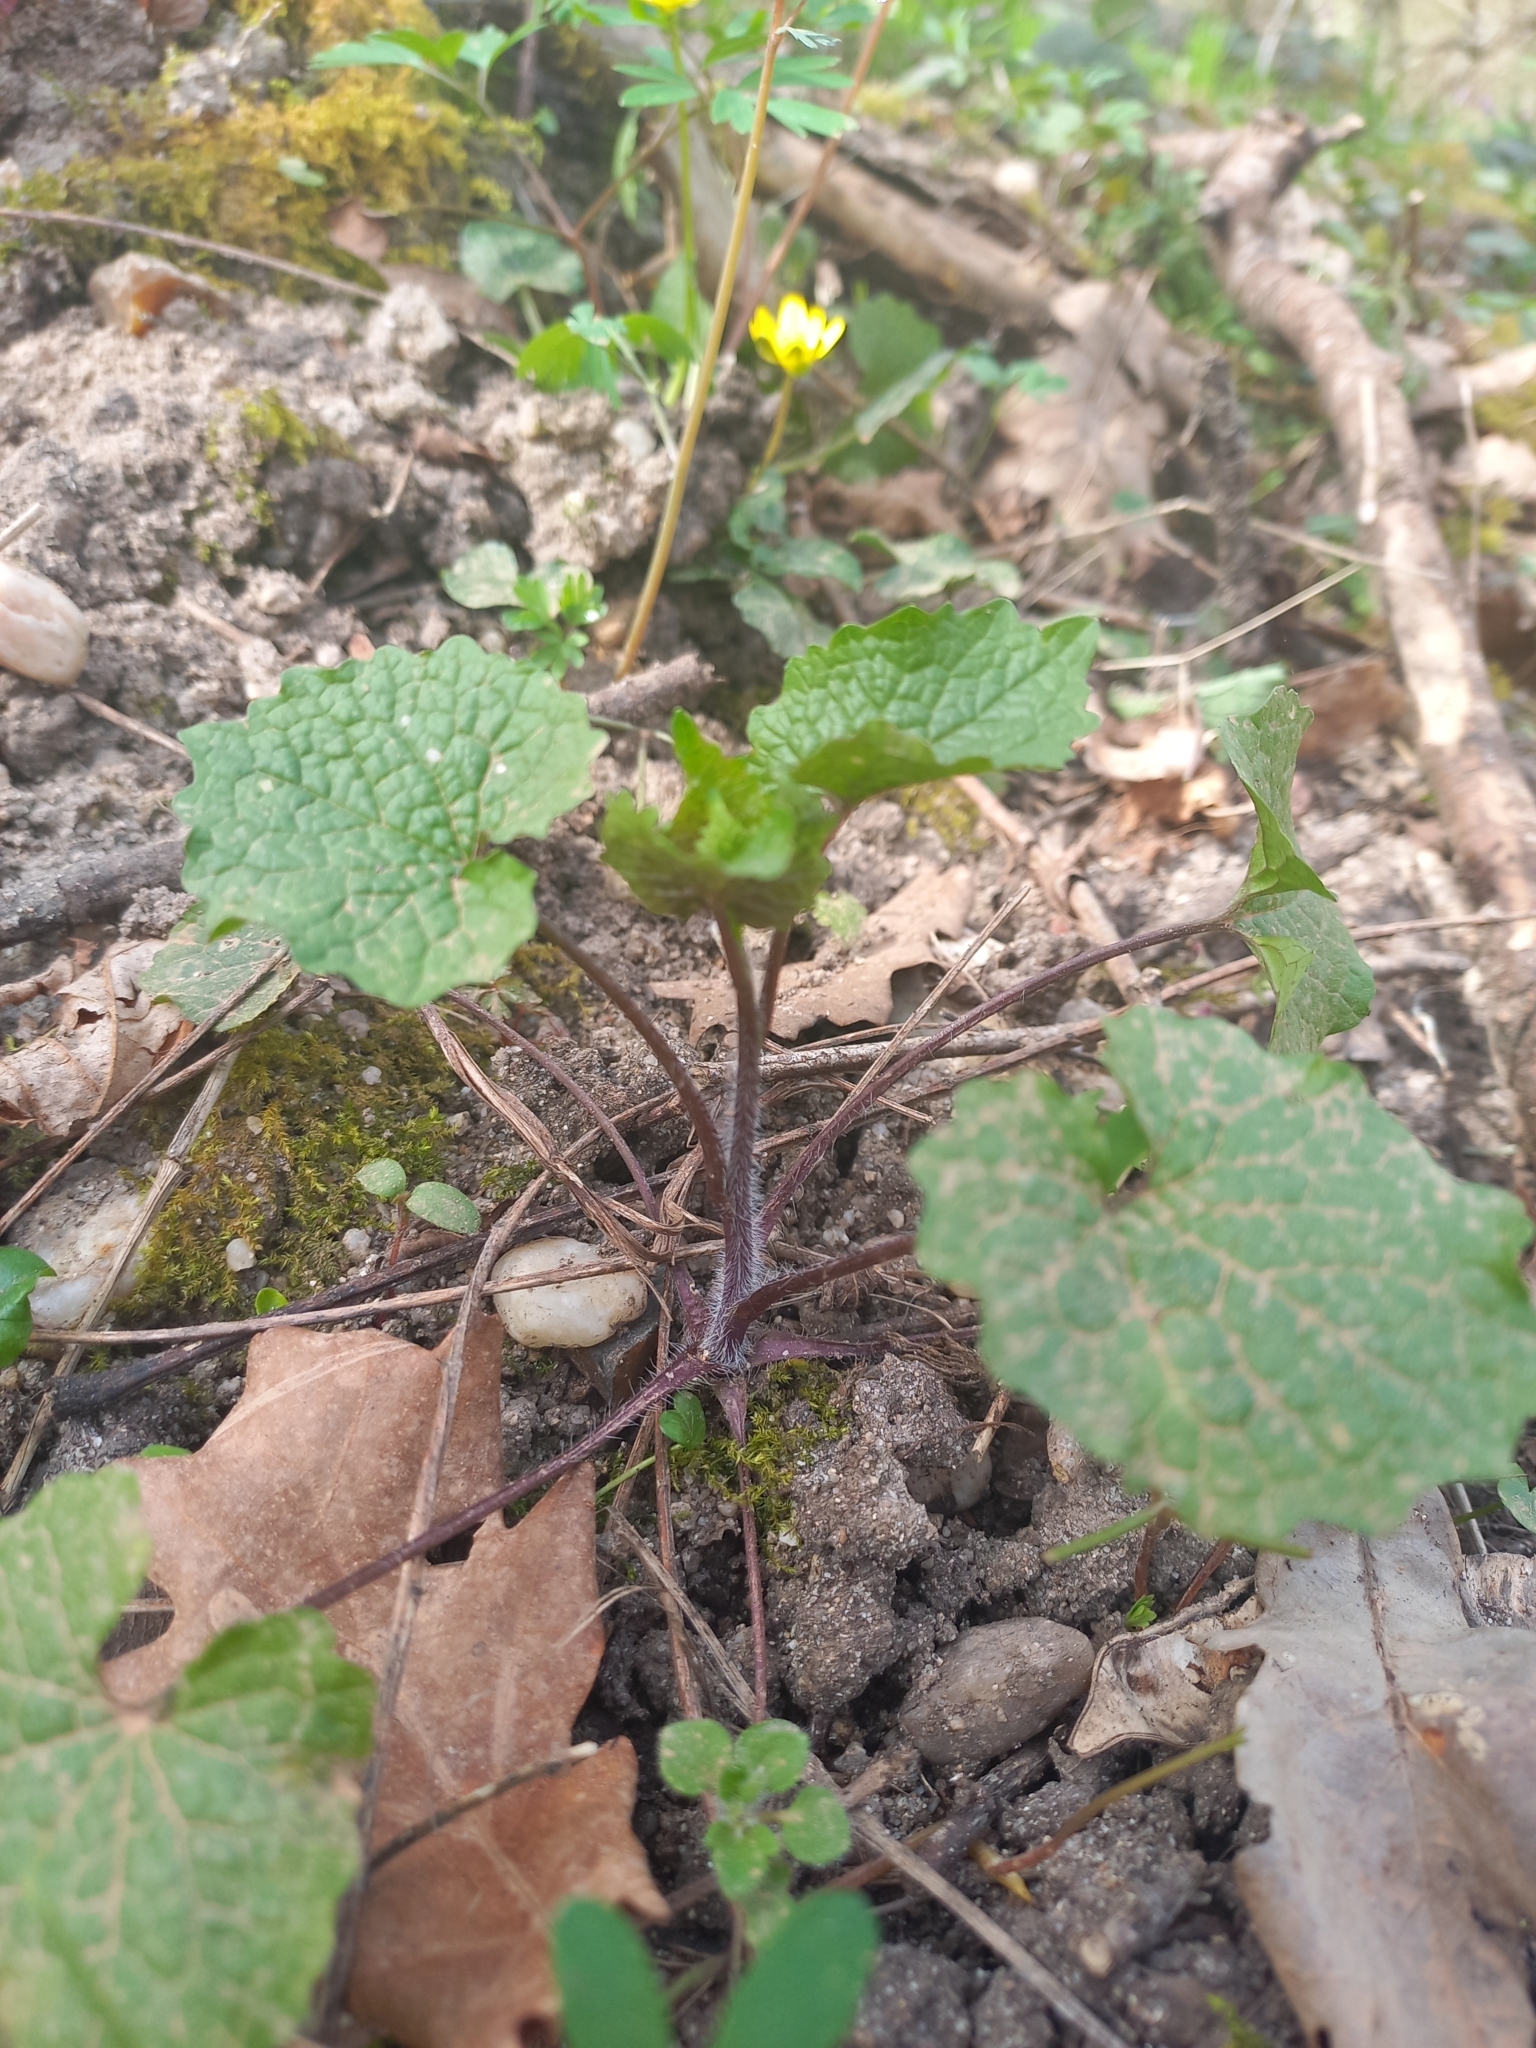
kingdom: Plantae
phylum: Tracheophyta
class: Magnoliopsida
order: Brassicales
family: Brassicaceae
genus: Alliaria
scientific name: Alliaria petiolata
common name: Garlic mustard
